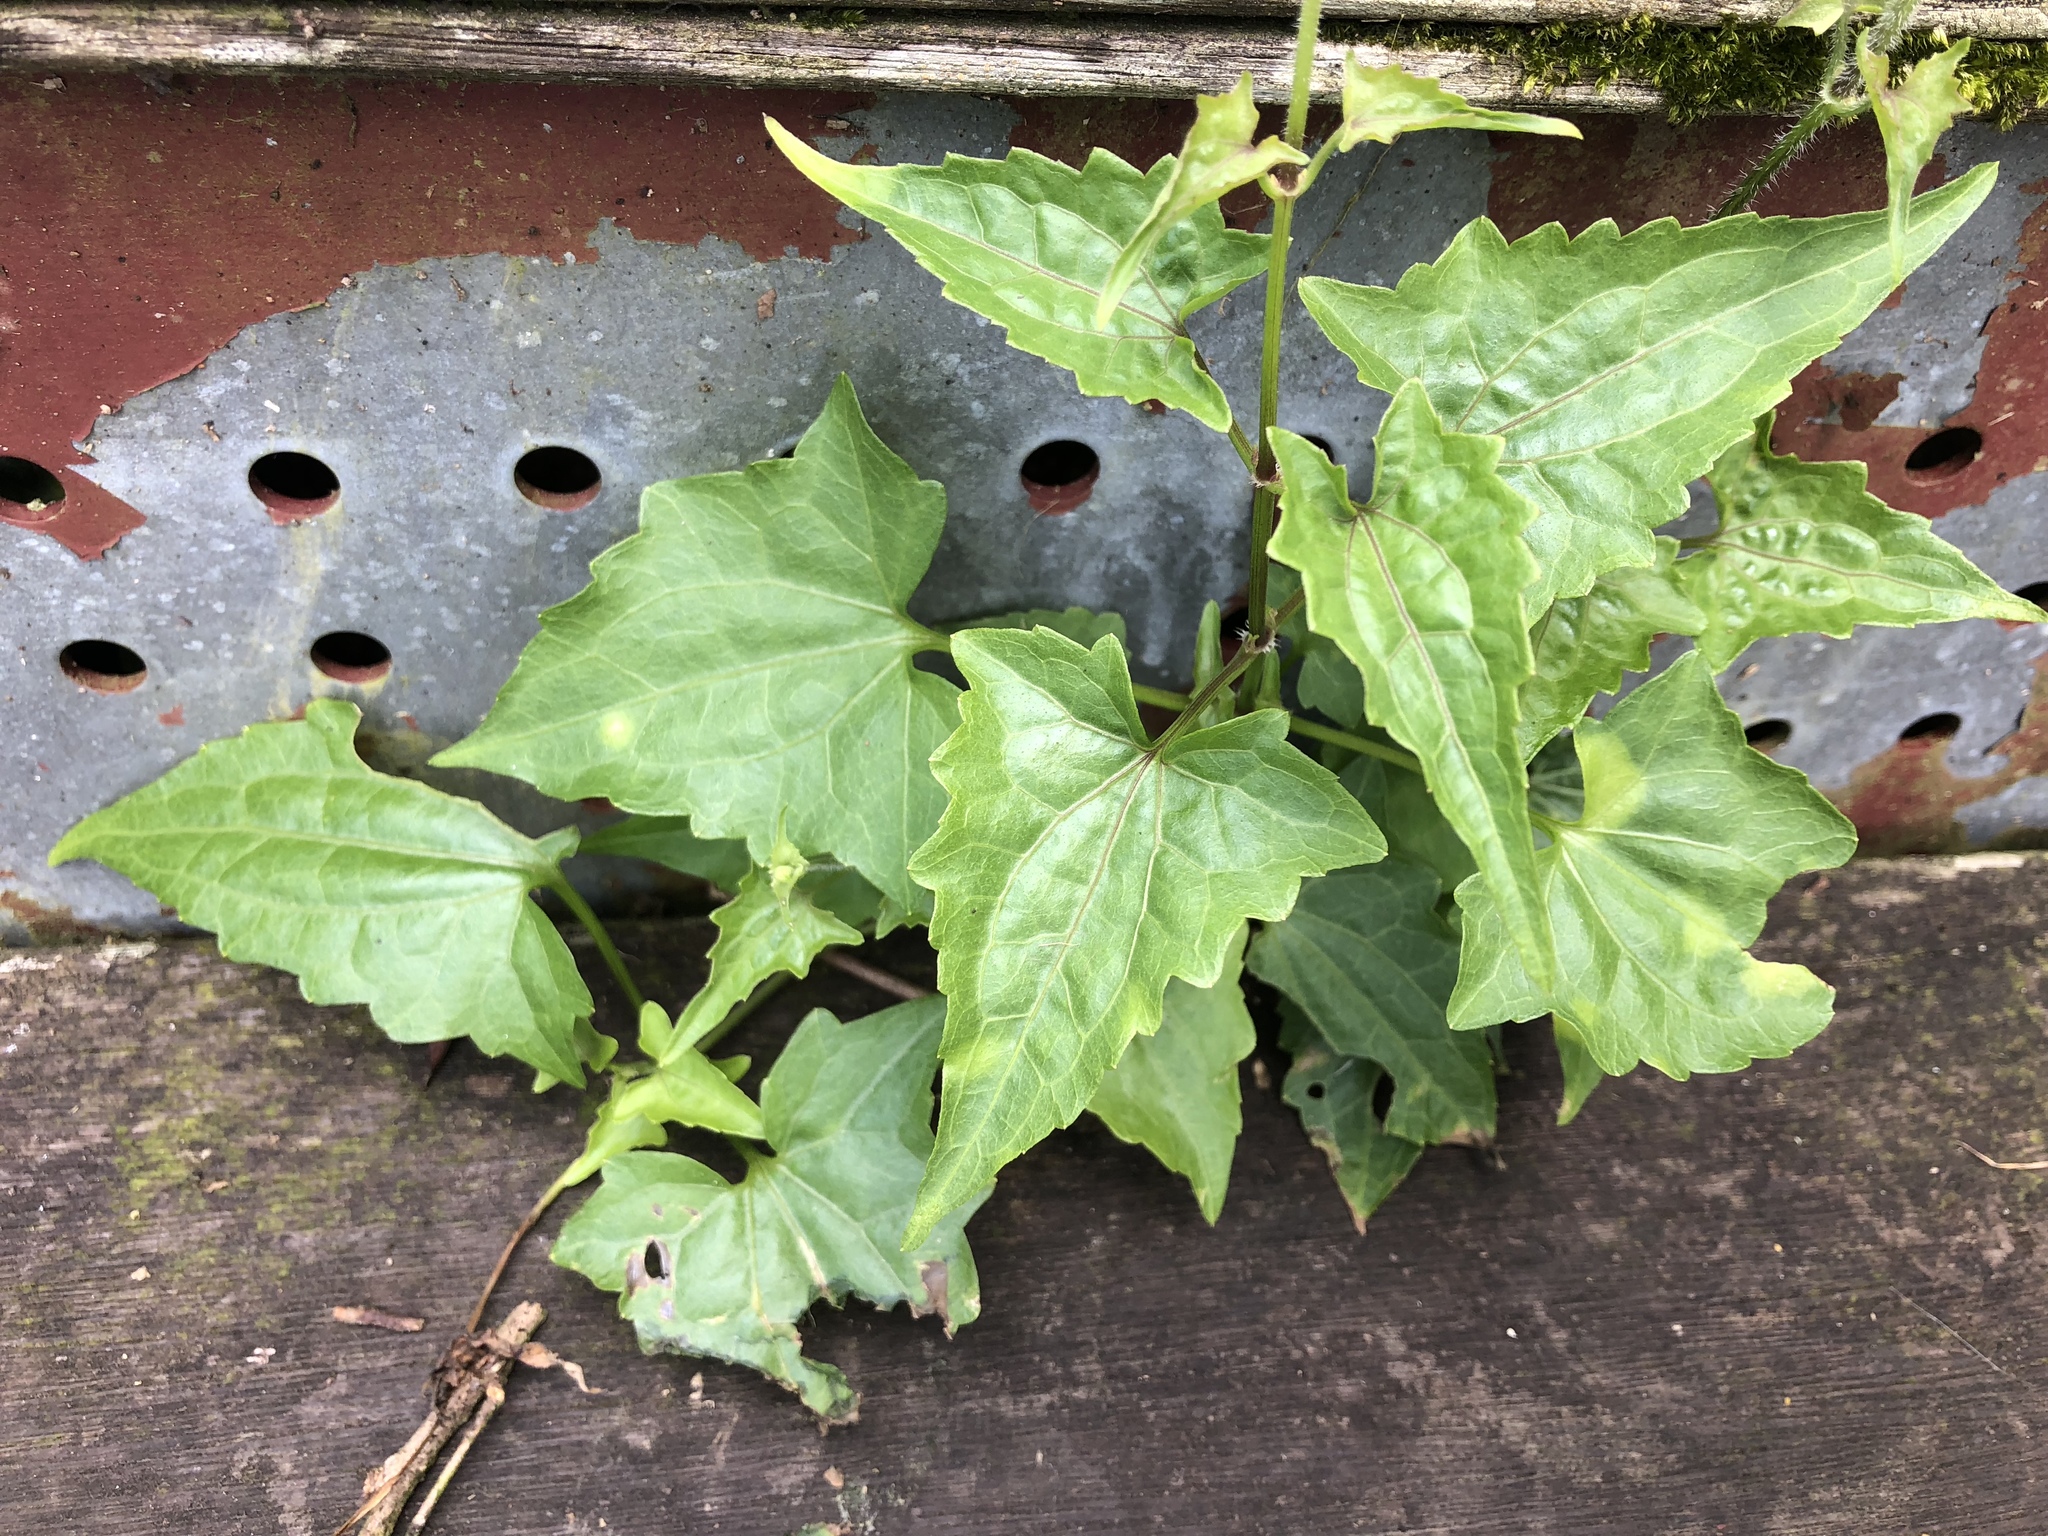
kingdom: Plantae
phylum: Tracheophyta
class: Magnoliopsida
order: Asterales
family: Asteraceae
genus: Mikania
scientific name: Mikania micrantha
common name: Mile-a-minute
